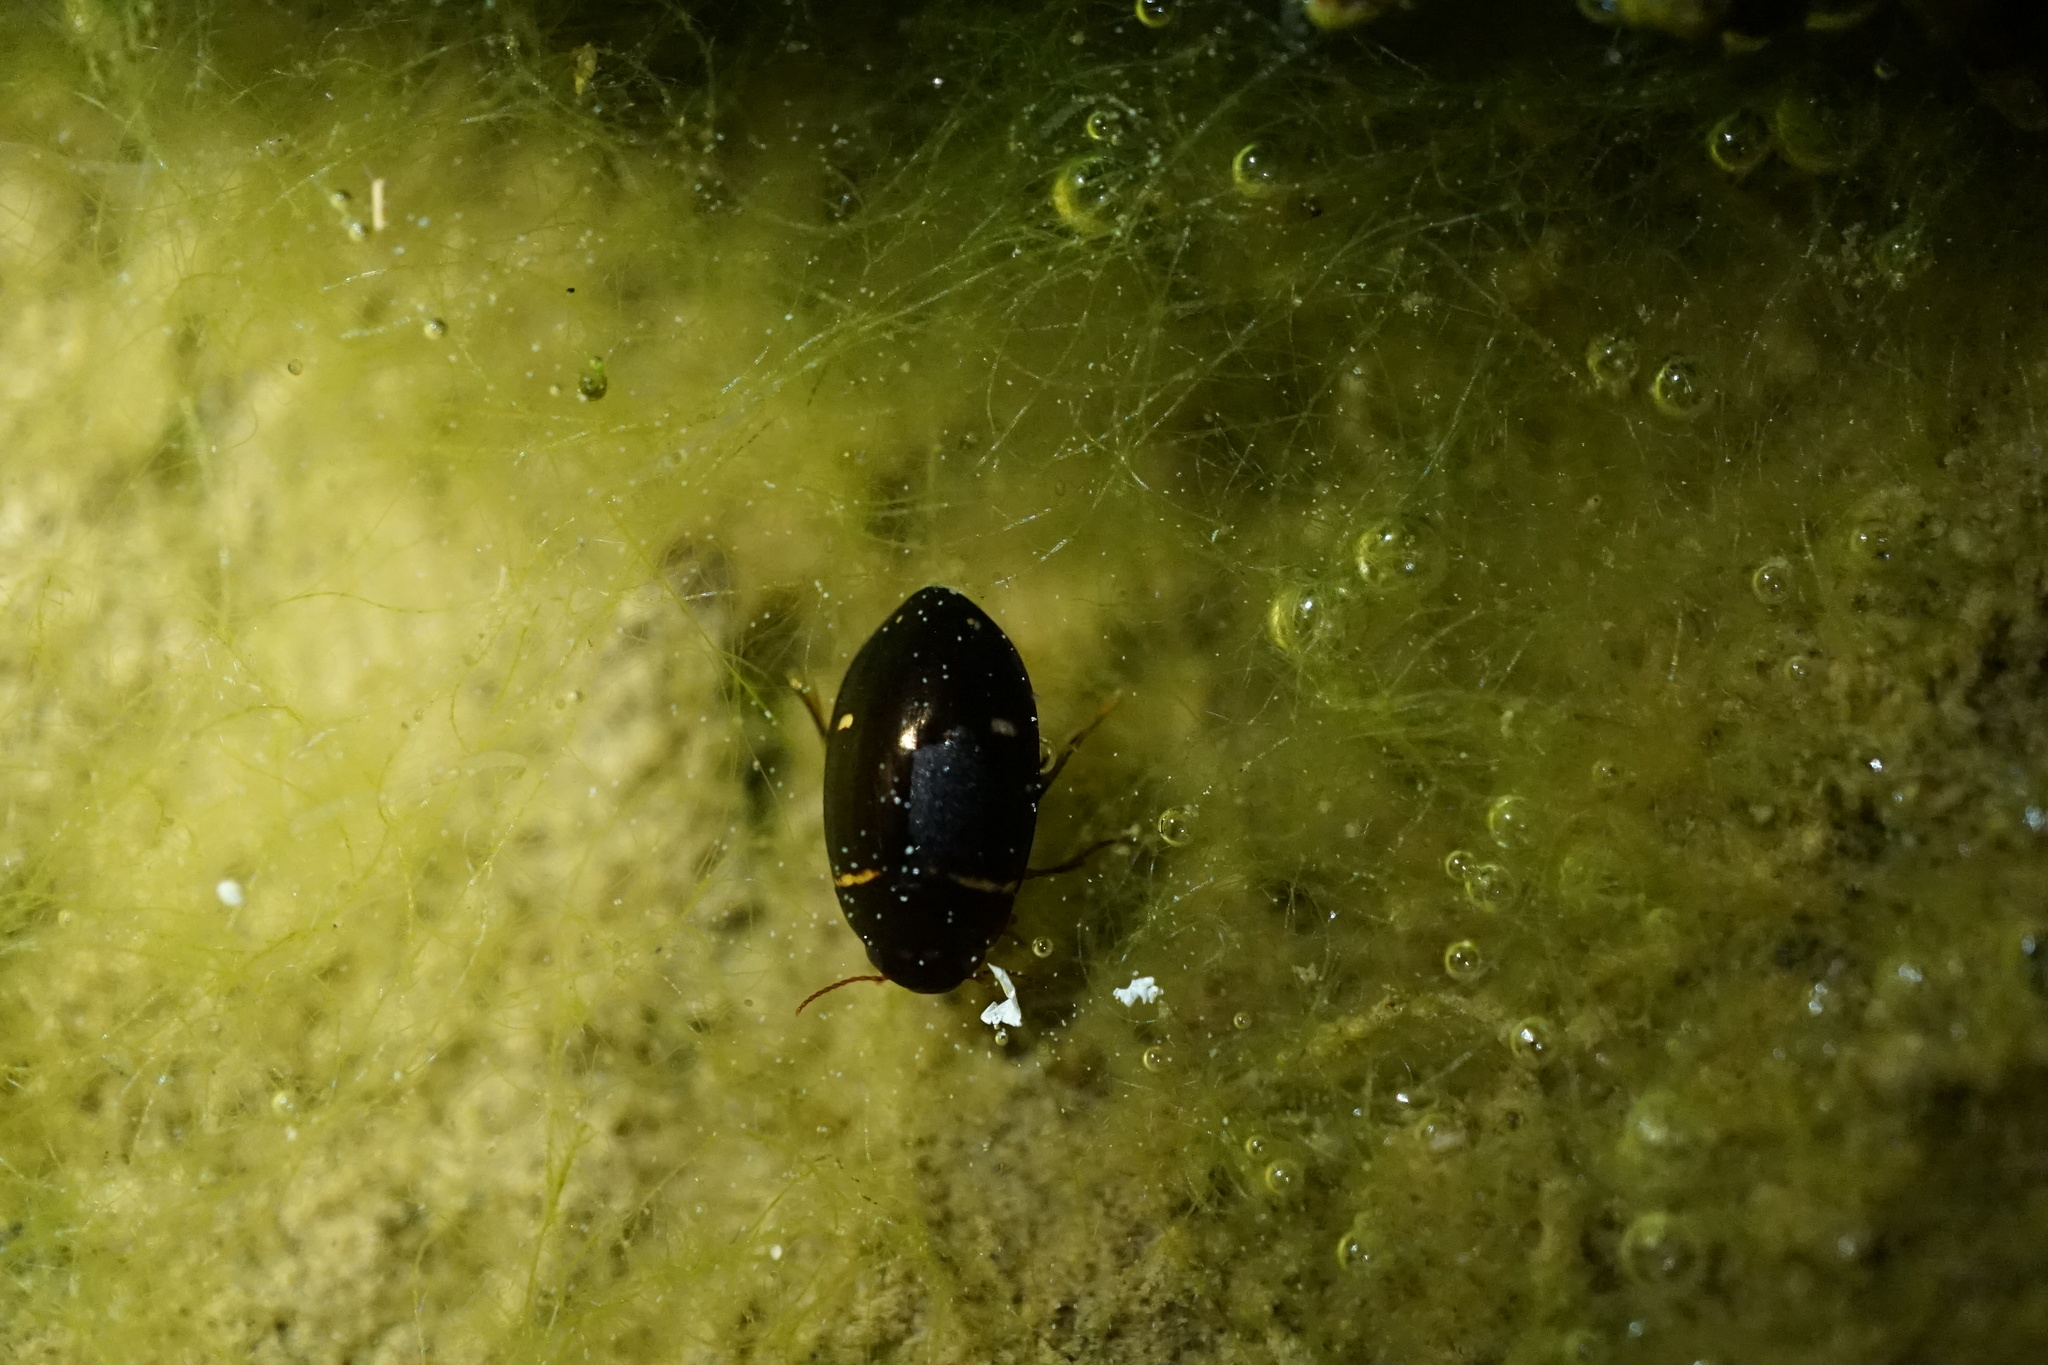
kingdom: Animalia
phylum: Arthropoda
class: Insecta
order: Coleoptera
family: Dytiscidae
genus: Platambus
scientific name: Platambus pictipennis
